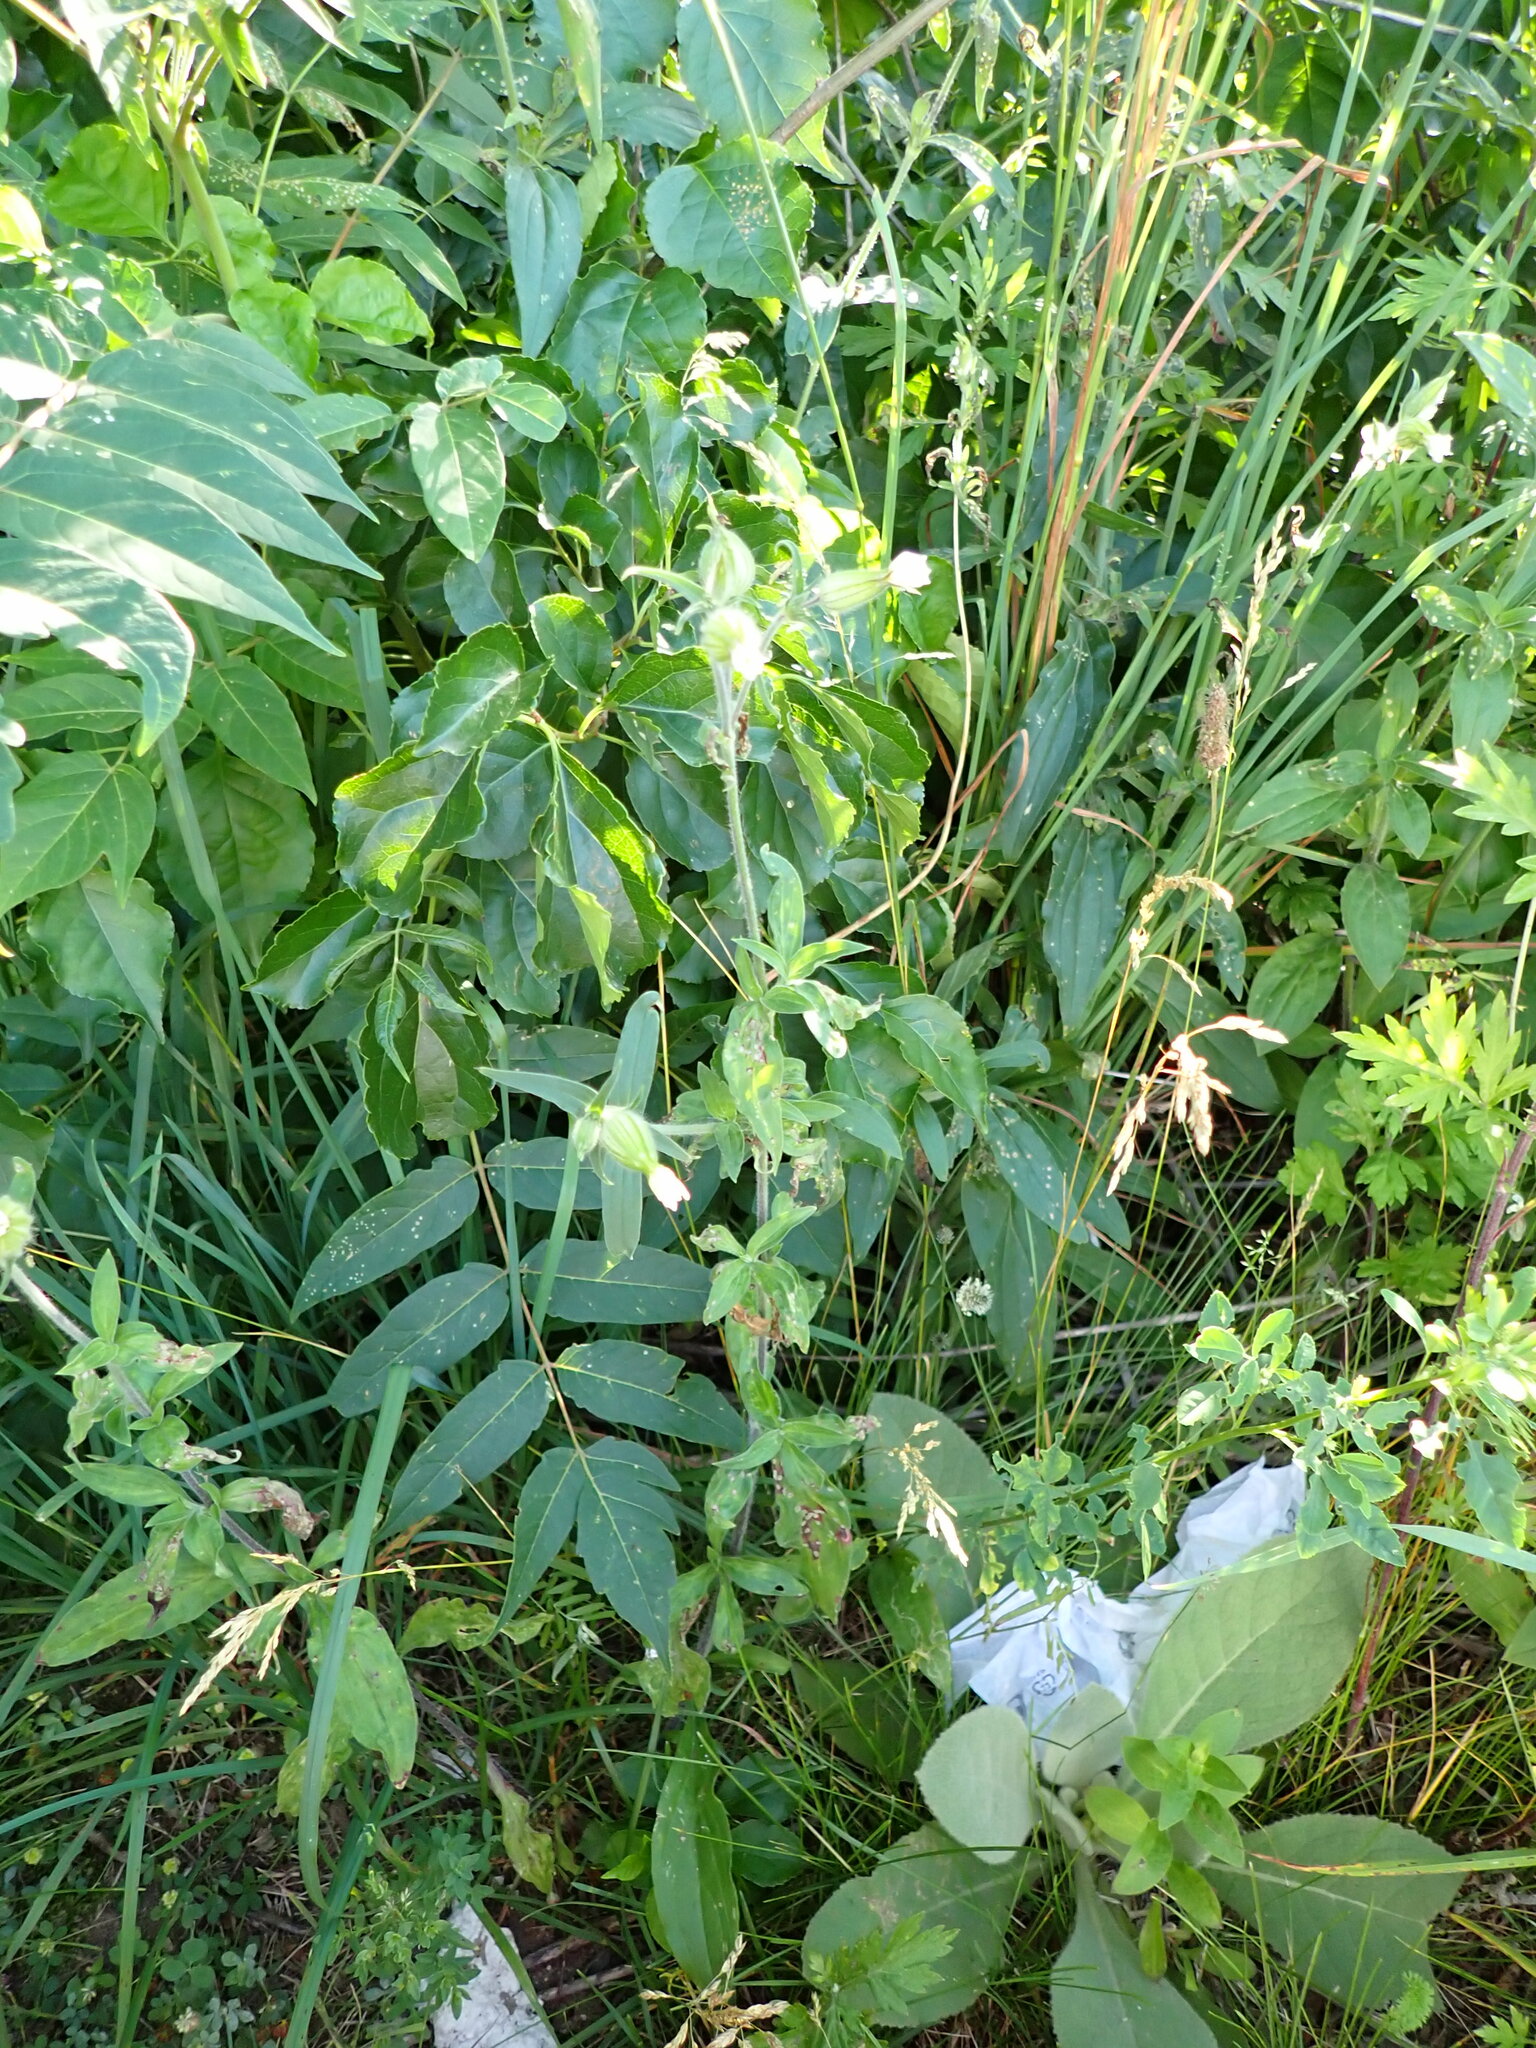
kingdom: Plantae
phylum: Tracheophyta
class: Magnoliopsida
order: Caryophyllales
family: Caryophyllaceae
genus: Silene
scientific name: Silene latifolia
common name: White campion
